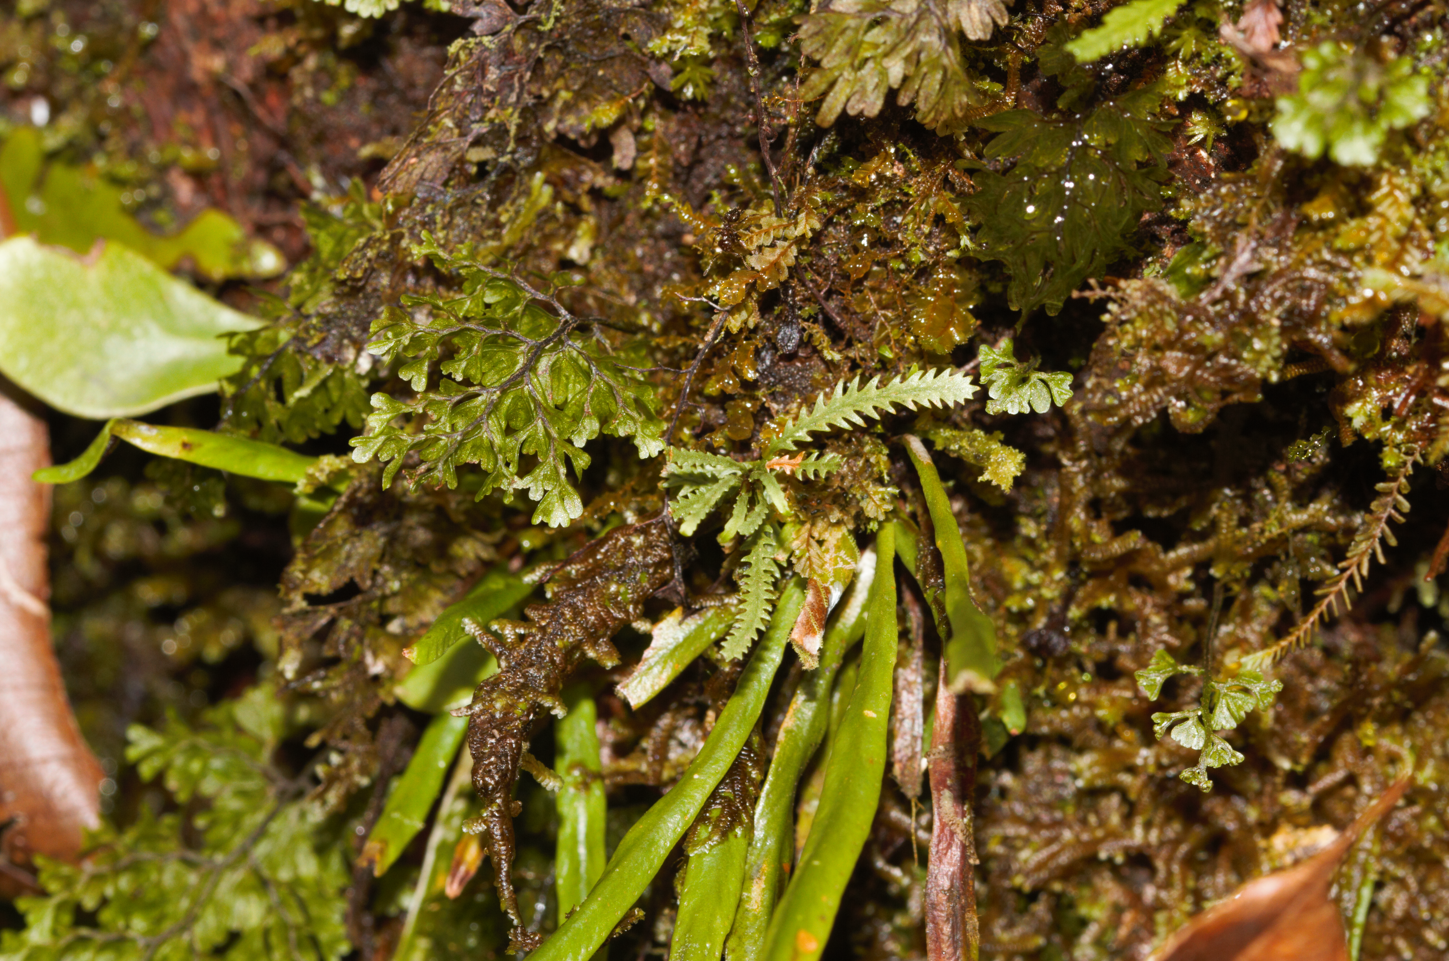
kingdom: Plantae
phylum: Tracheophyta
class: Polypodiopsida
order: Polypodiales
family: Polypodiaceae
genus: Cochlidium
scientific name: Cochlidium serrulatum
